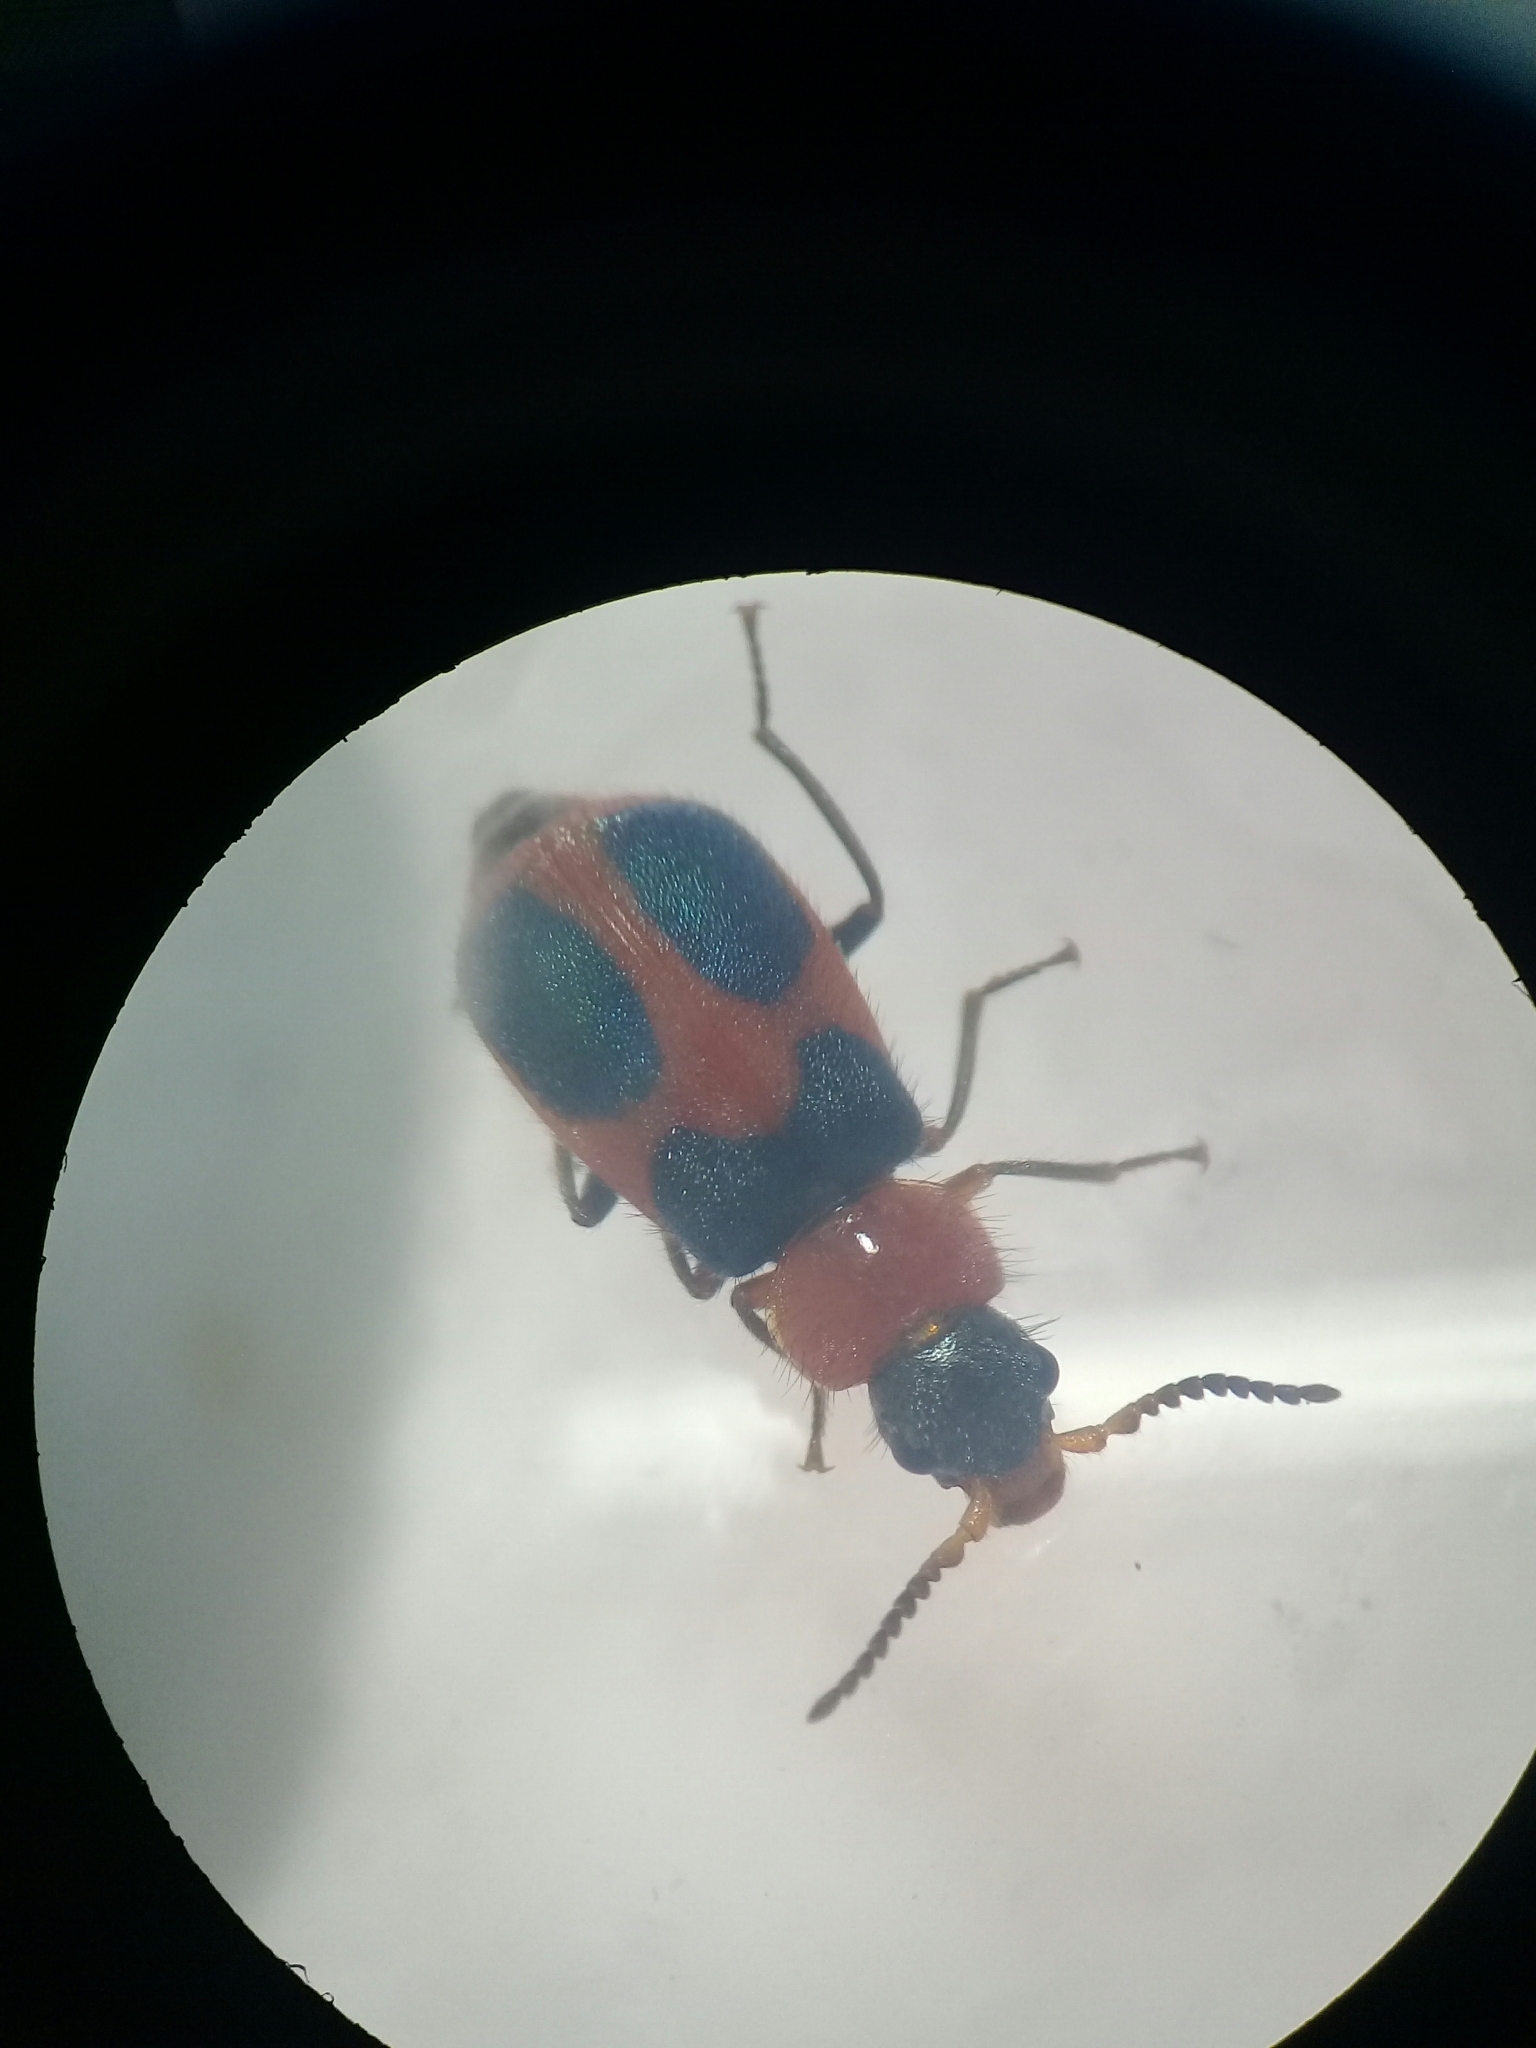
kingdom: Animalia
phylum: Arthropoda
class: Insecta
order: Coleoptera
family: Melyridae
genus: Collops
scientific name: Collops quadrimaculatus
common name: Four-spotted collops
